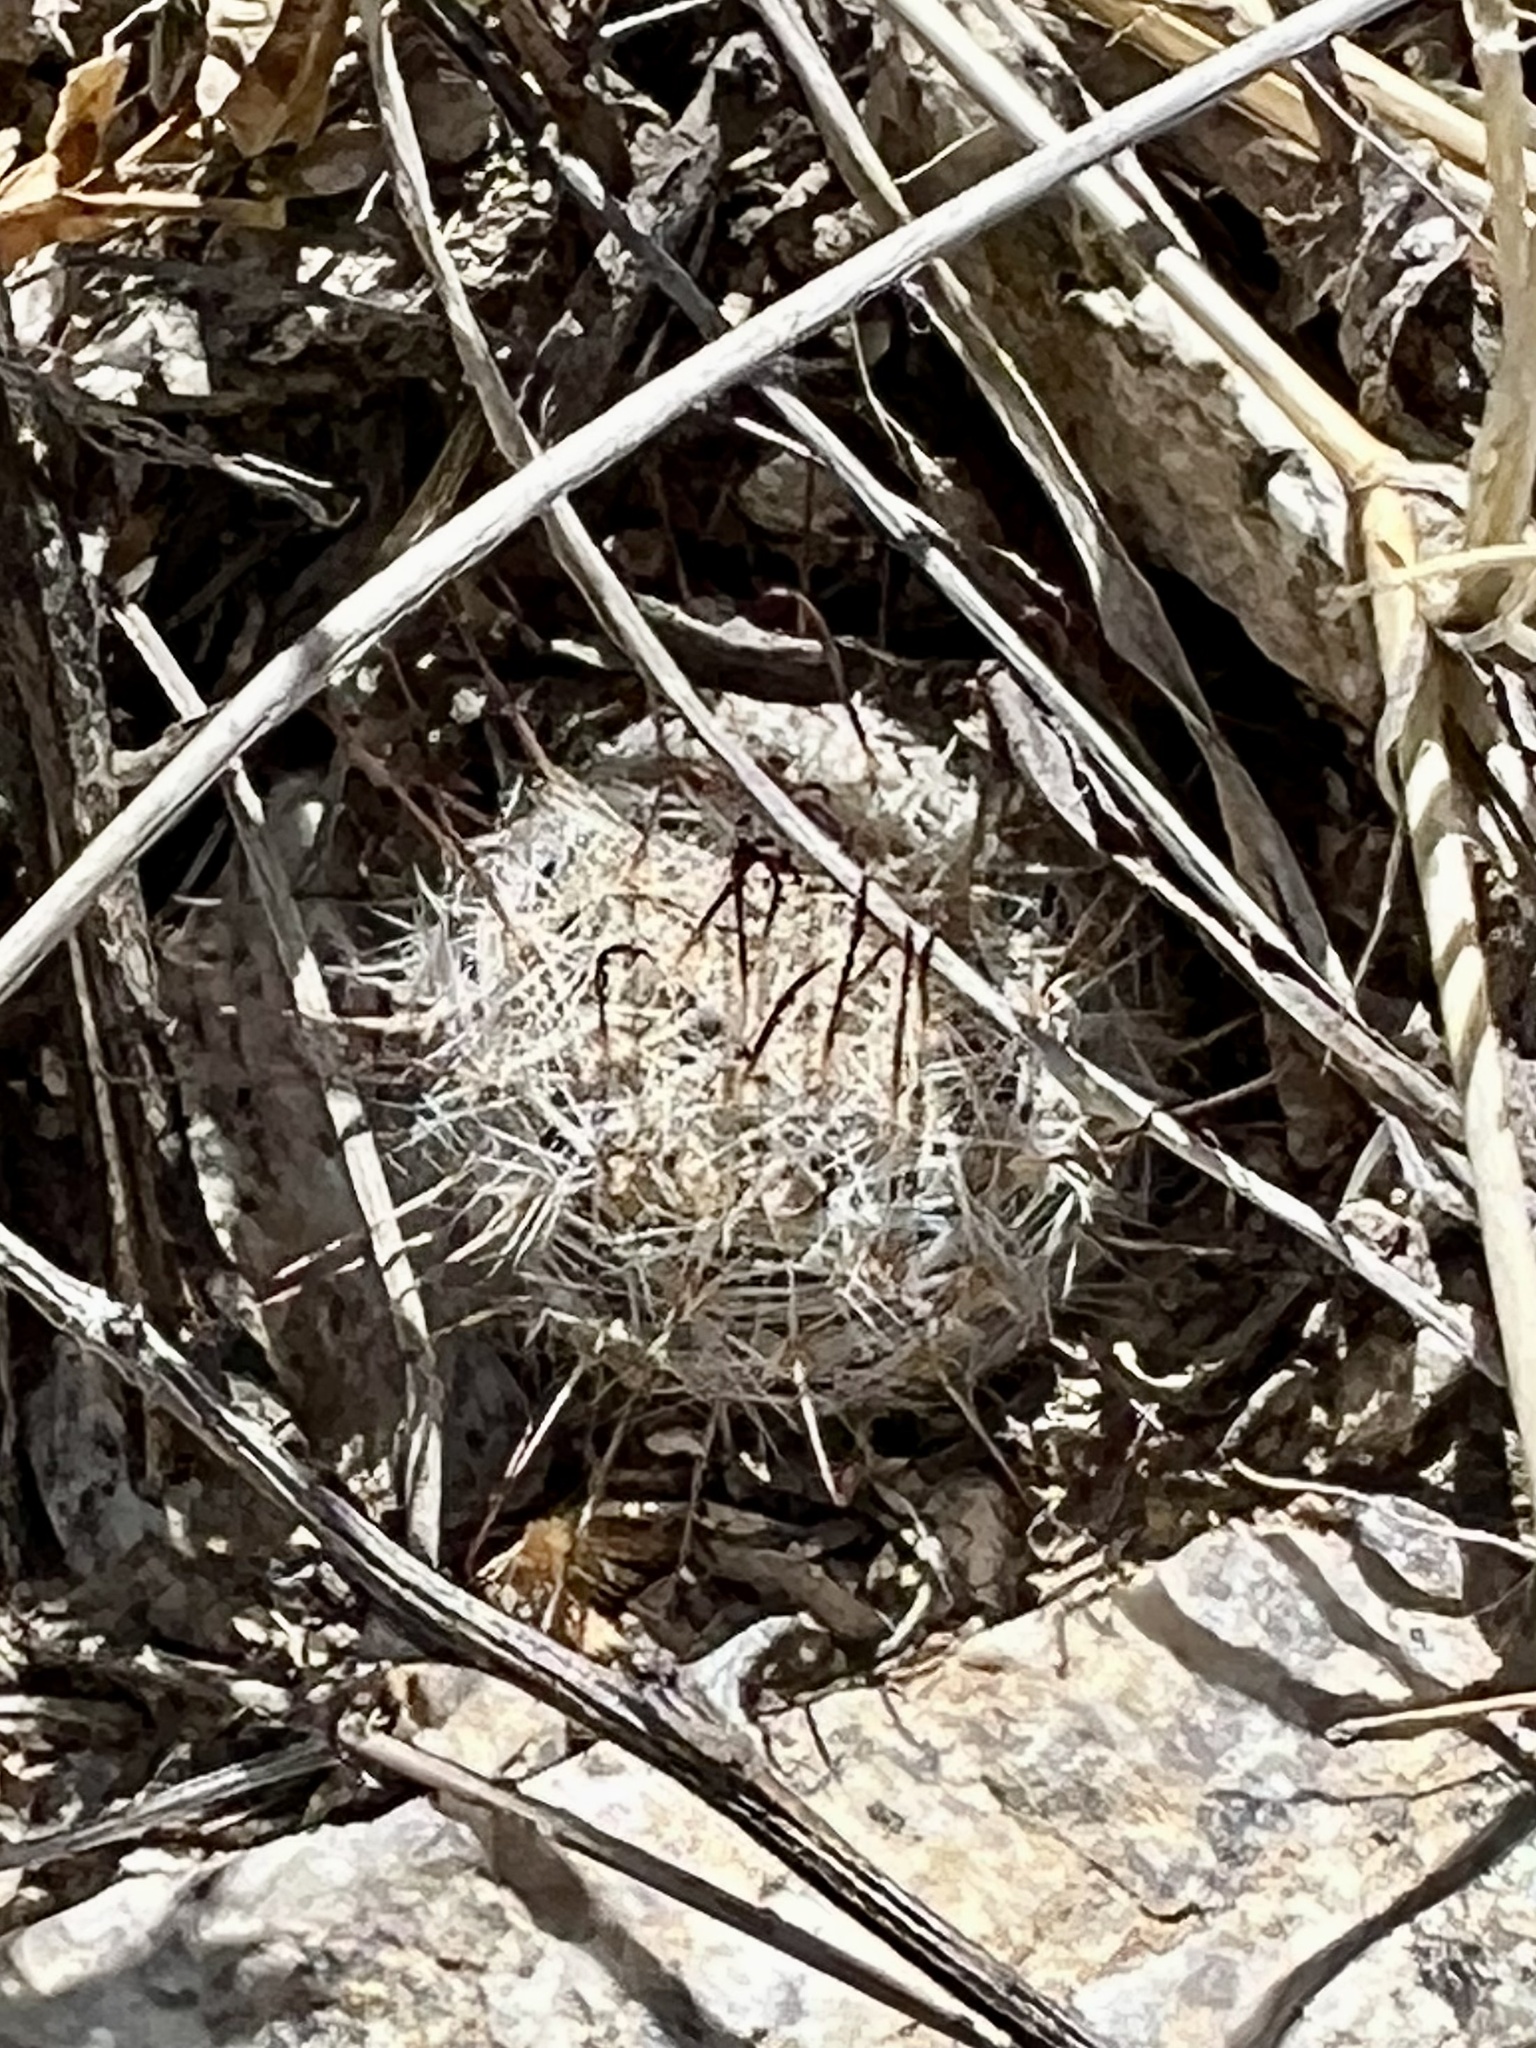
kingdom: Plantae
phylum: Tracheophyta
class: Magnoliopsida
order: Caryophyllales
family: Cactaceae
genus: Cochemiea
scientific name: Cochemiea grahamii
